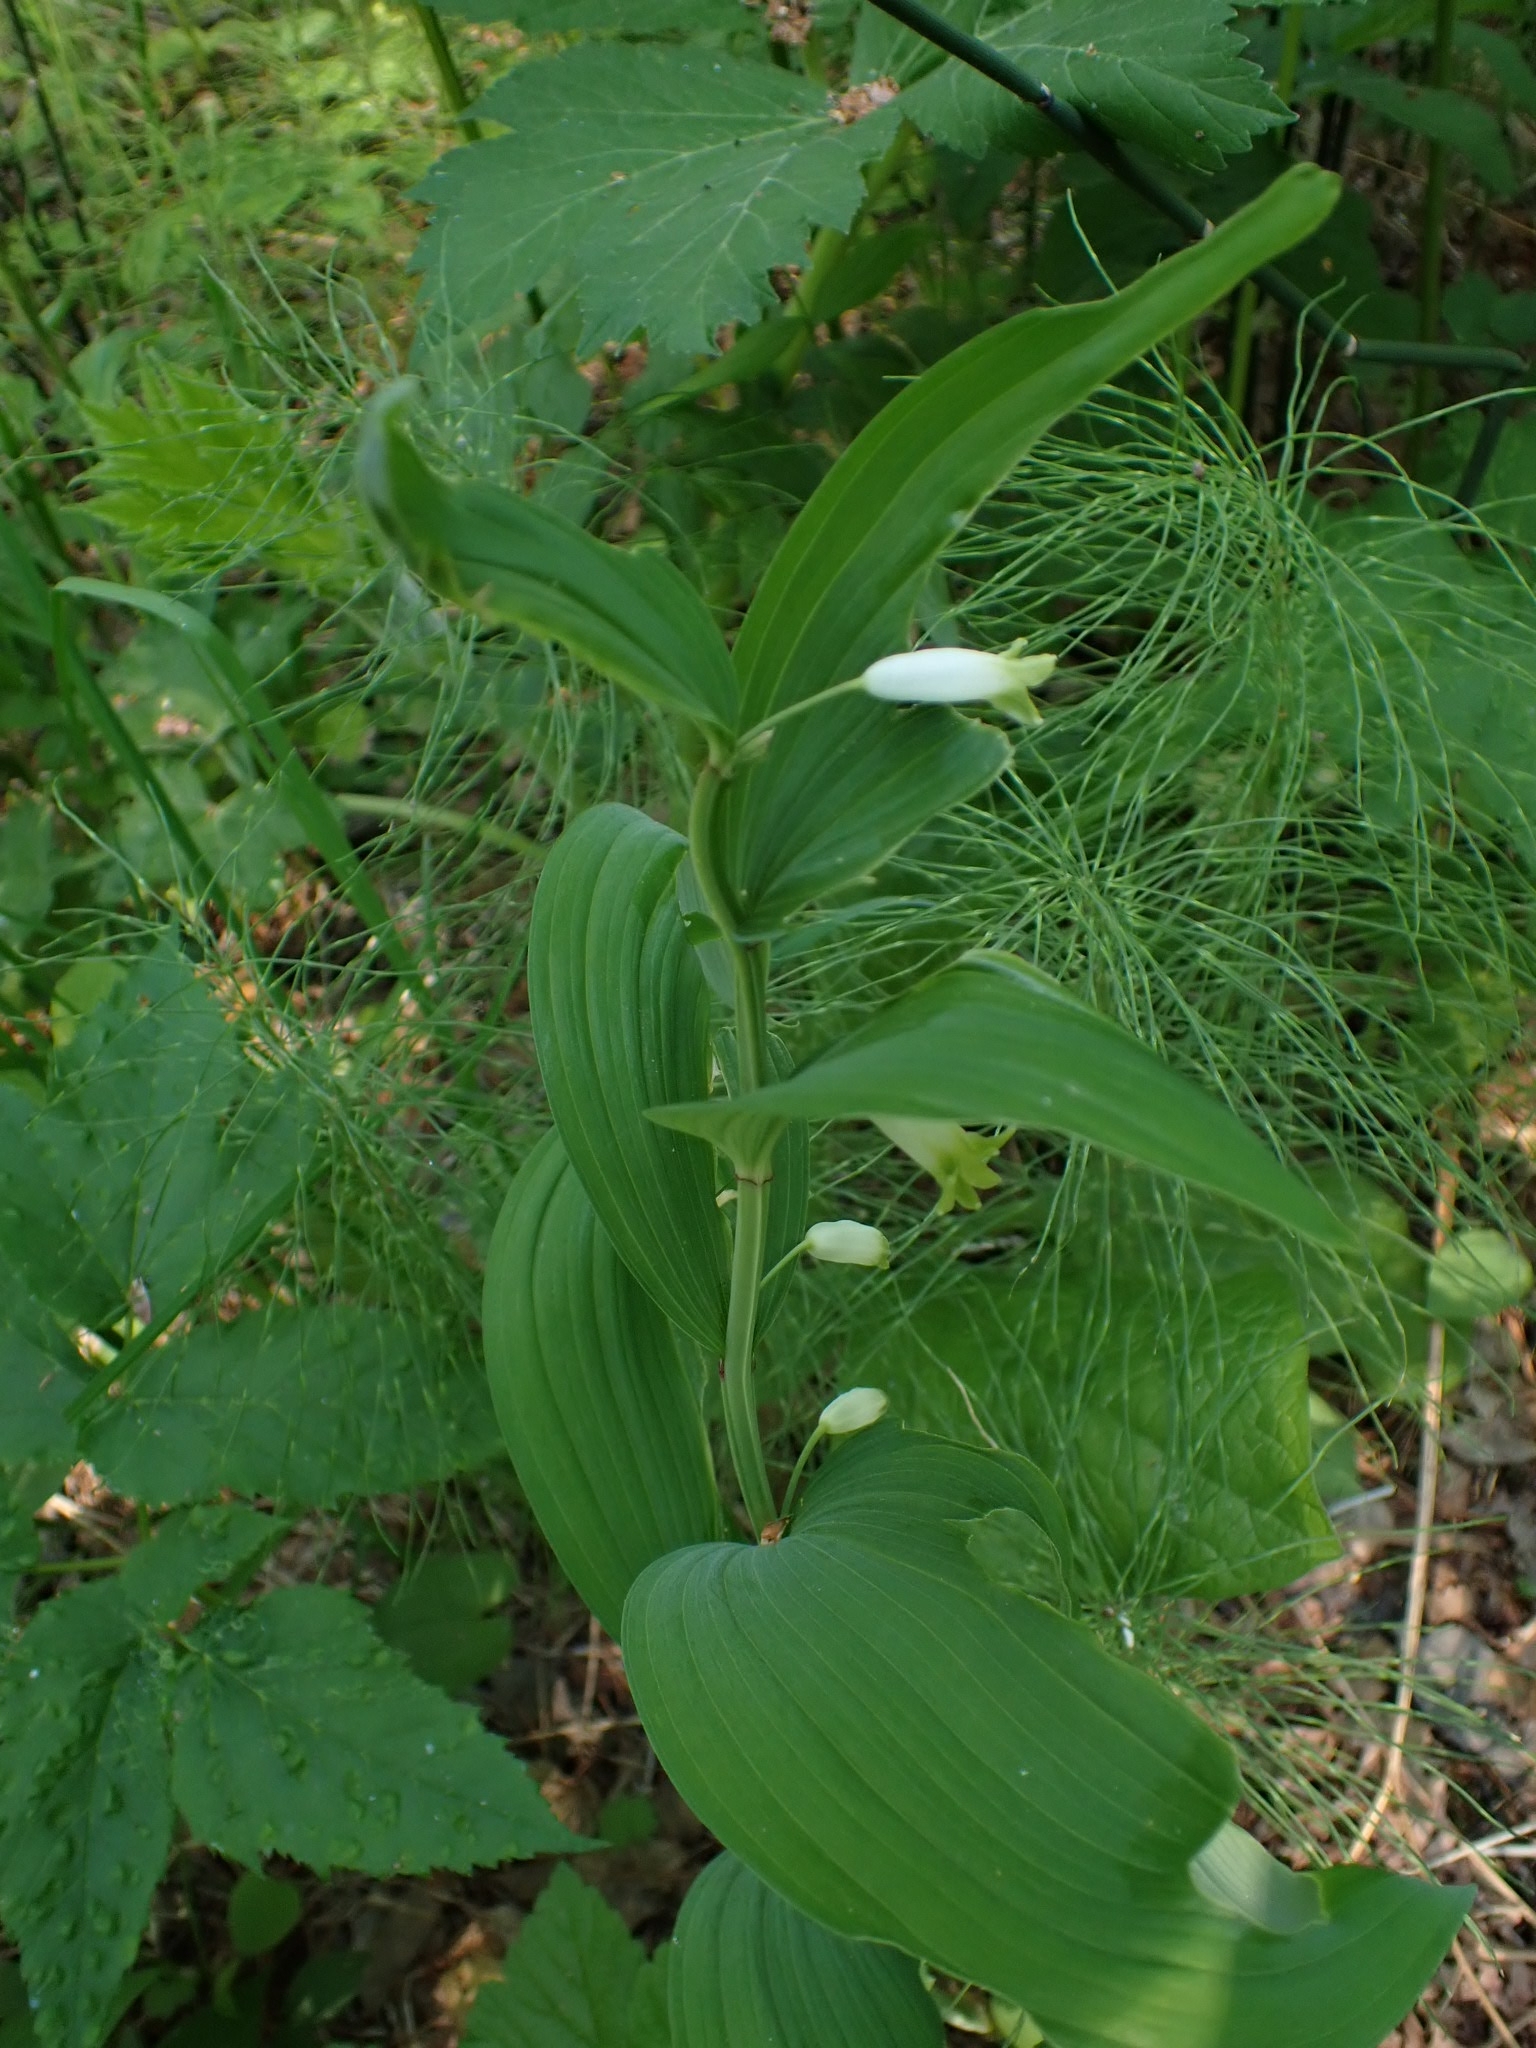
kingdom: Plantae
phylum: Tracheophyta
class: Liliopsida
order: Asparagales
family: Asparagaceae
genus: Polygonatum
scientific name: Polygonatum odoratum
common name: Angular solomon's-seal
